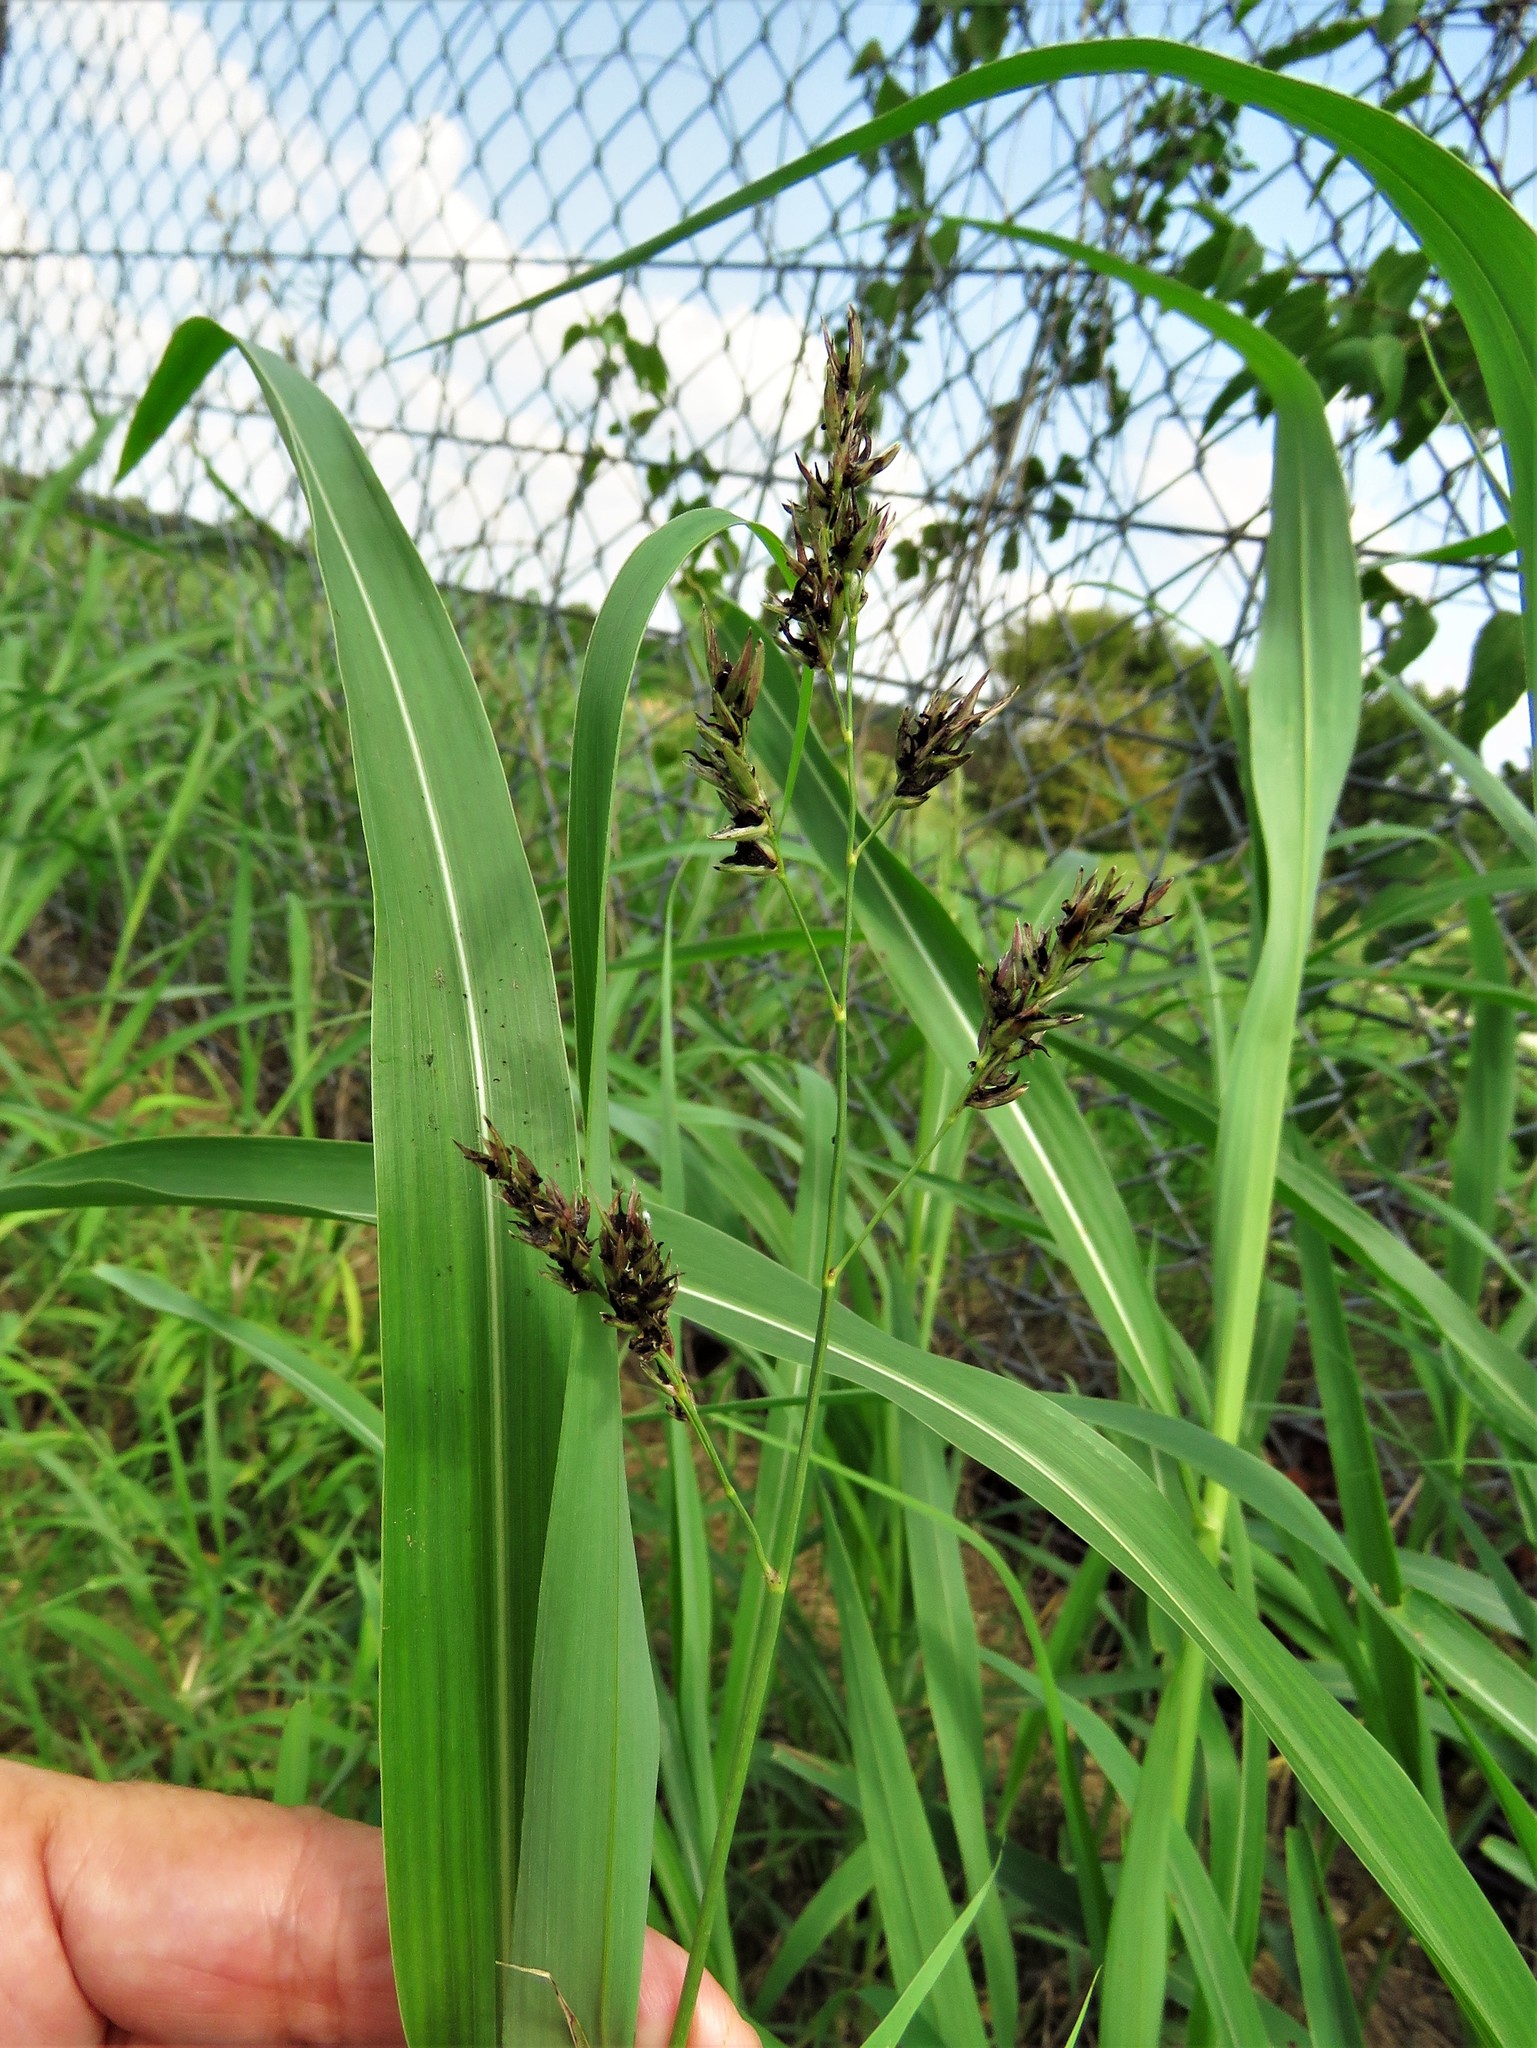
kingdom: Plantae
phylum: Tracheophyta
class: Liliopsida
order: Poales
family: Poaceae
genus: Sorghum
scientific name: Sorghum halepense
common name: Johnson-grass
